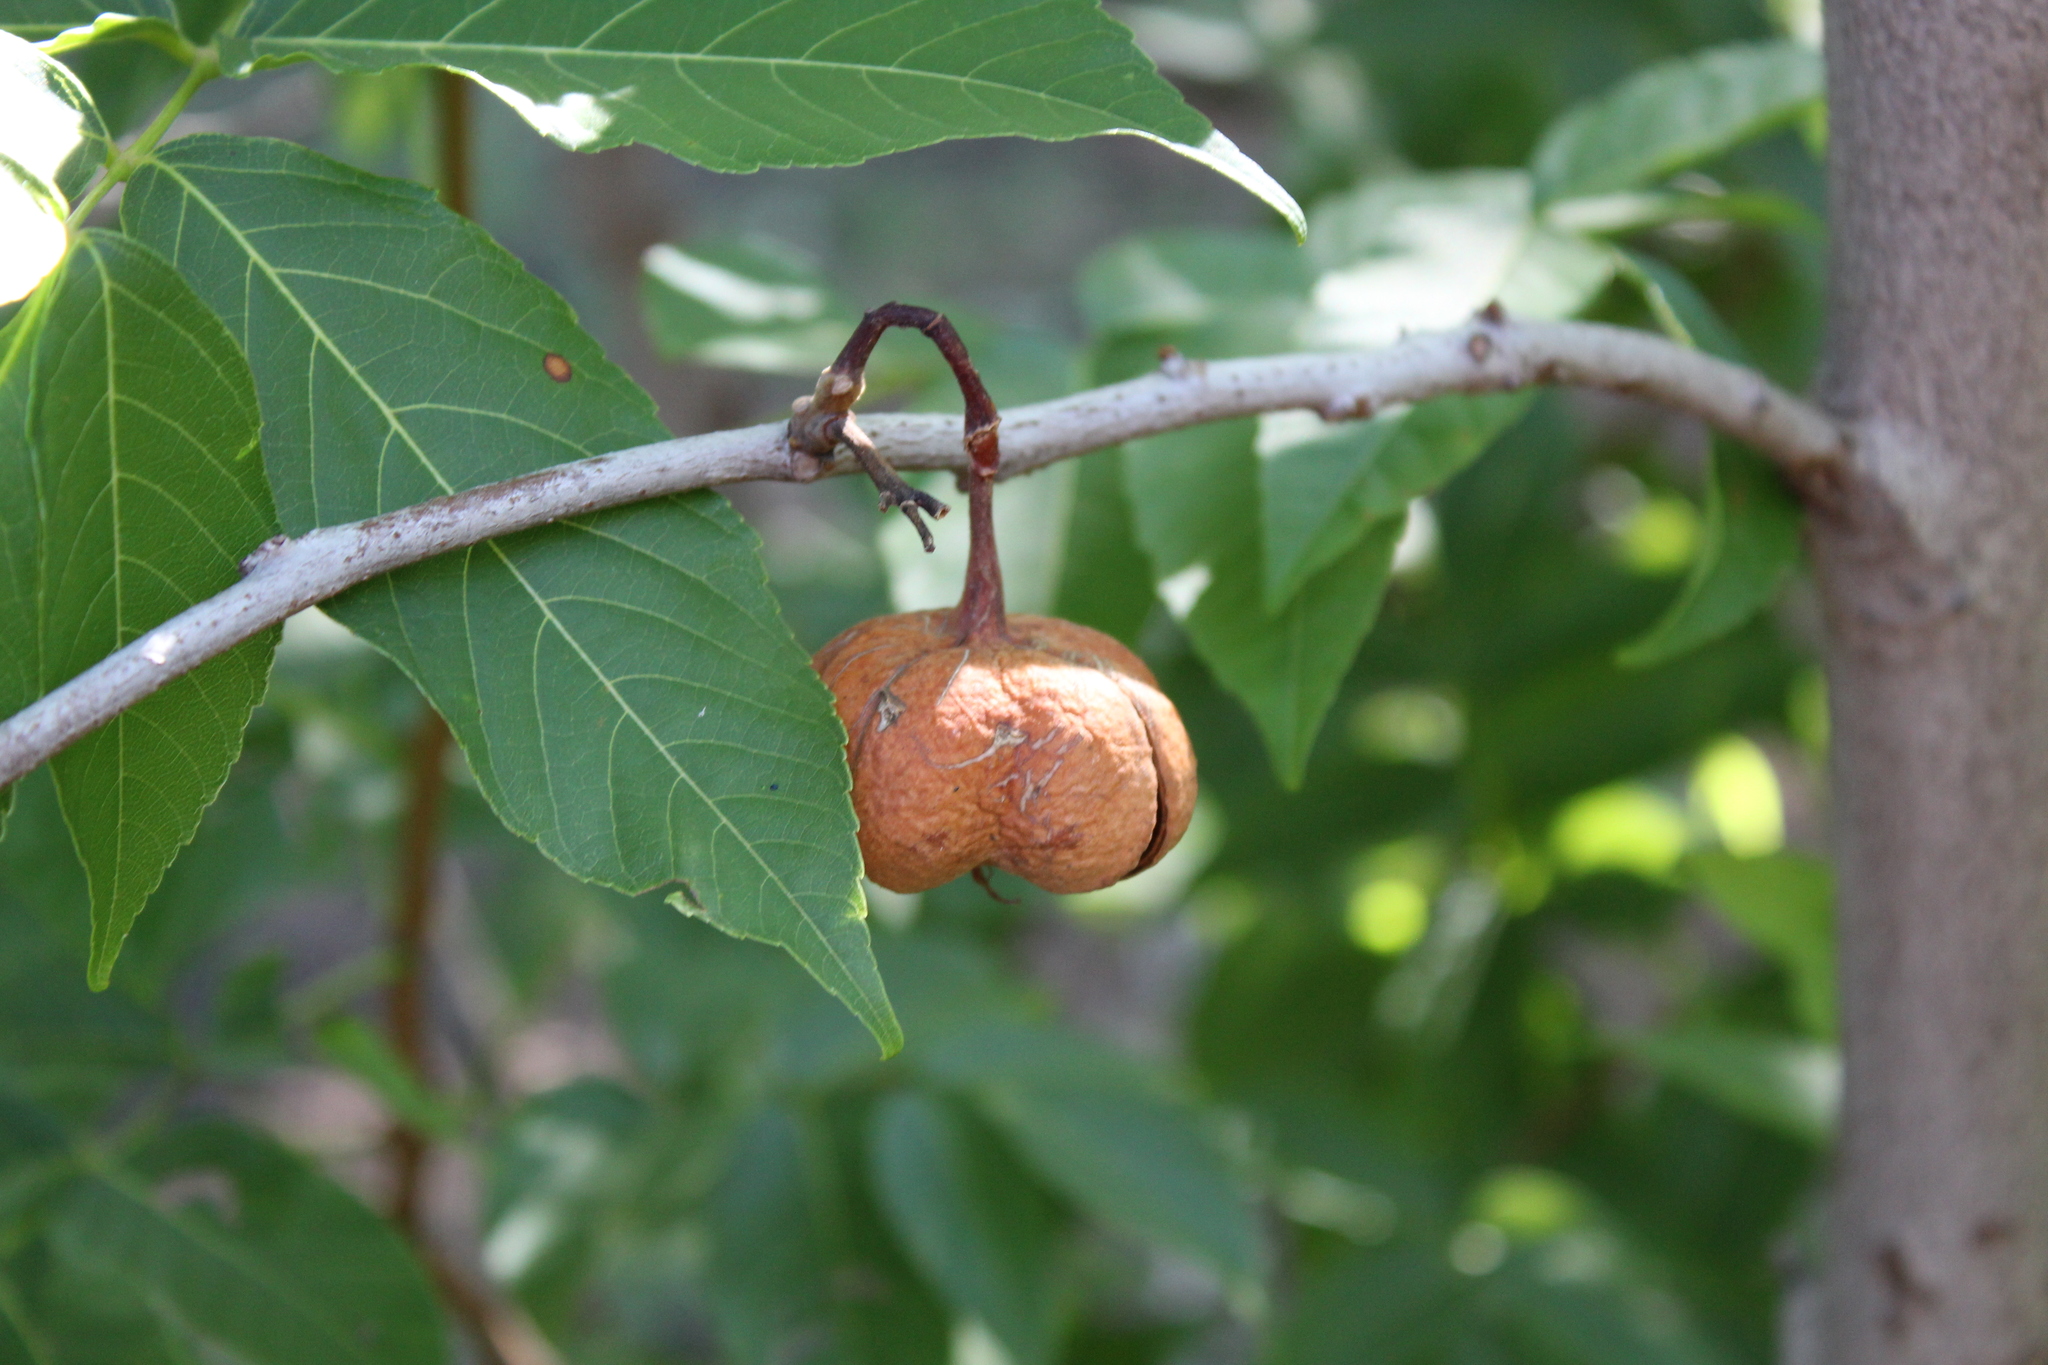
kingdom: Plantae
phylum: Tracheophyta
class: Magnoliopsida
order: Sapindales
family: Sapindaceae
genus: Ungnadia
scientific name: Ungnadia speciosa
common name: Texas-buckeye
